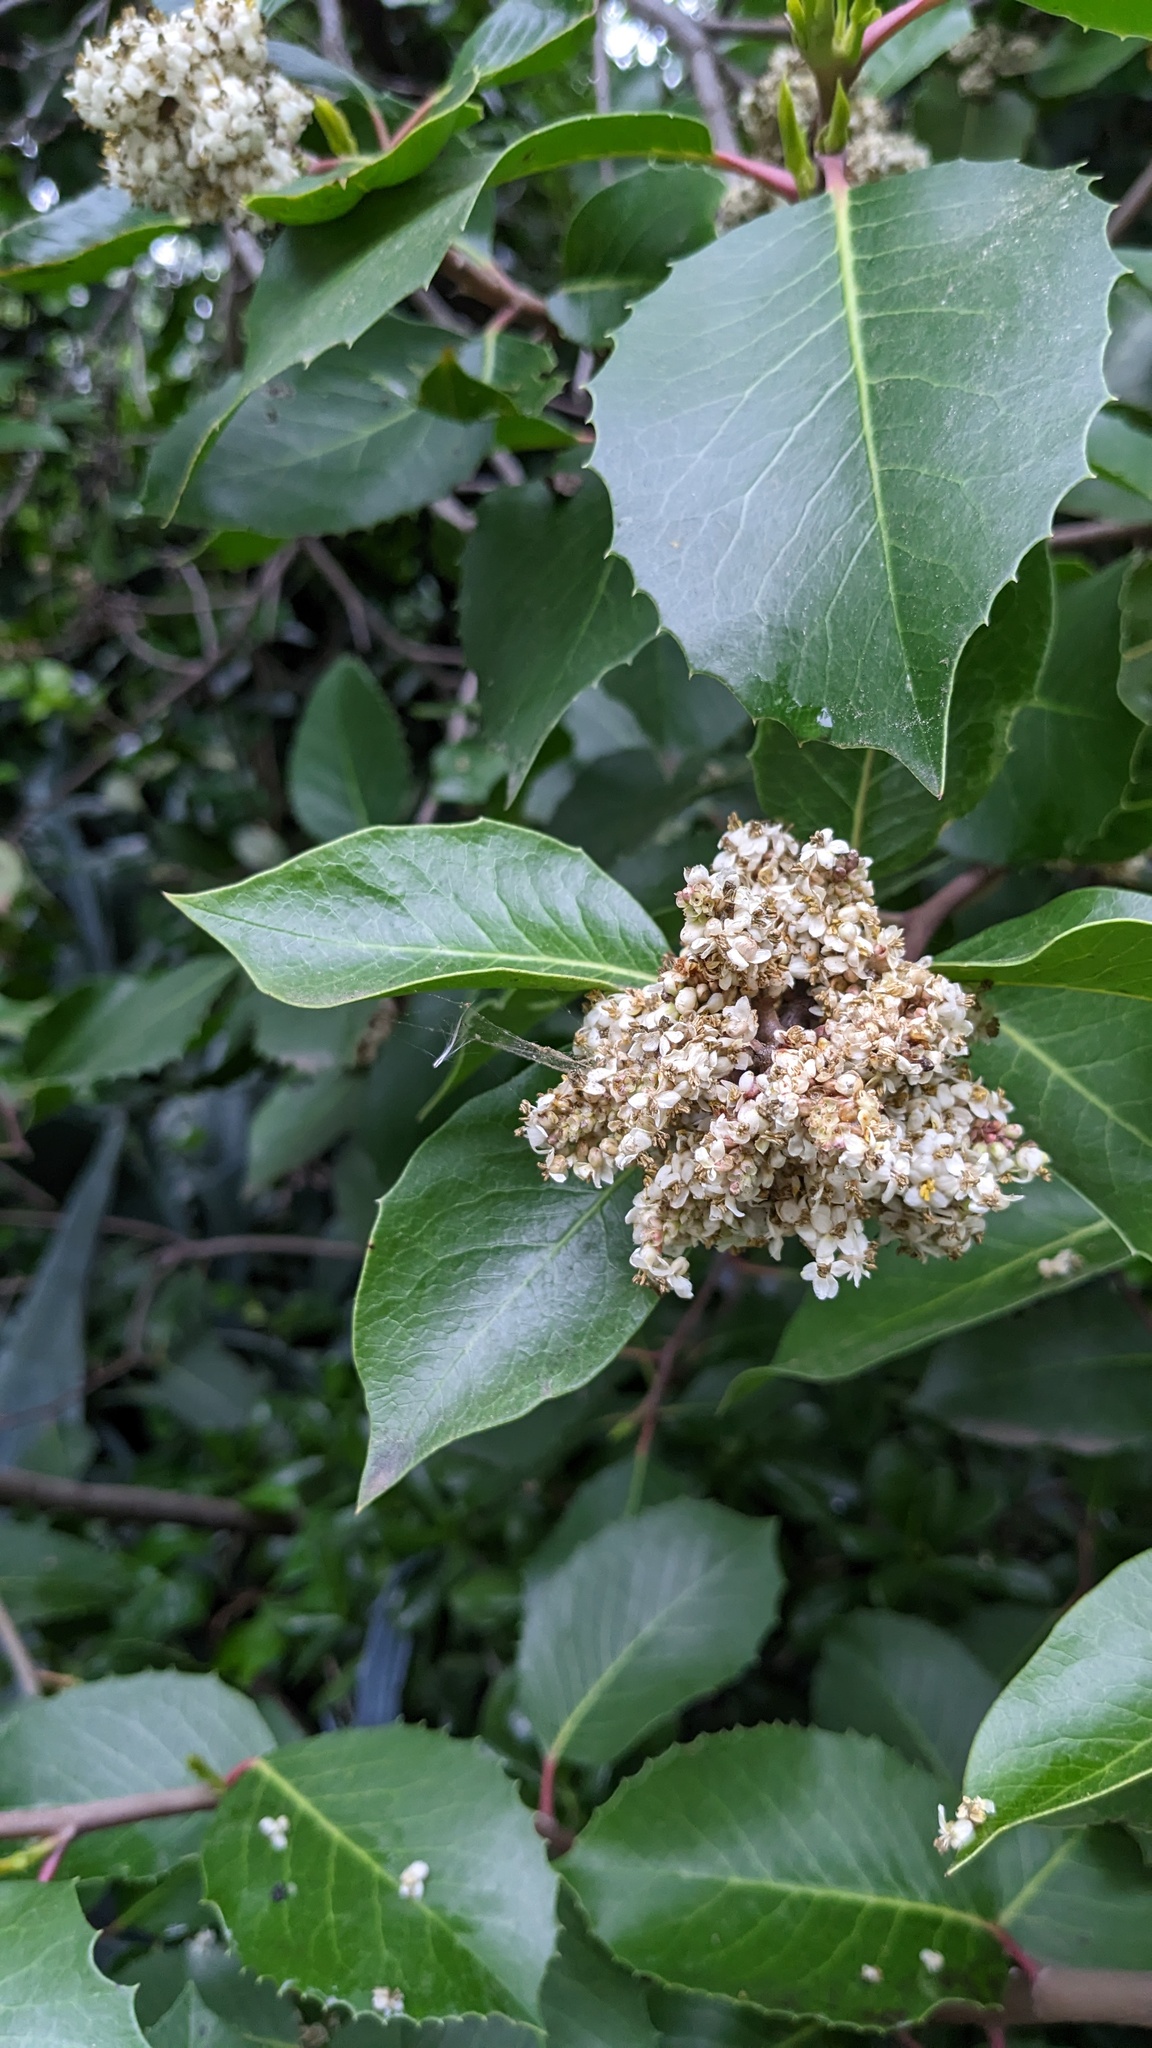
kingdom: Plantae
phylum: Tracheophyta
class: Magnoliopsida
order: Sapindales
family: Anacardiaceae
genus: Rhus
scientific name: Rhus ovata
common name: Sugar sumac
